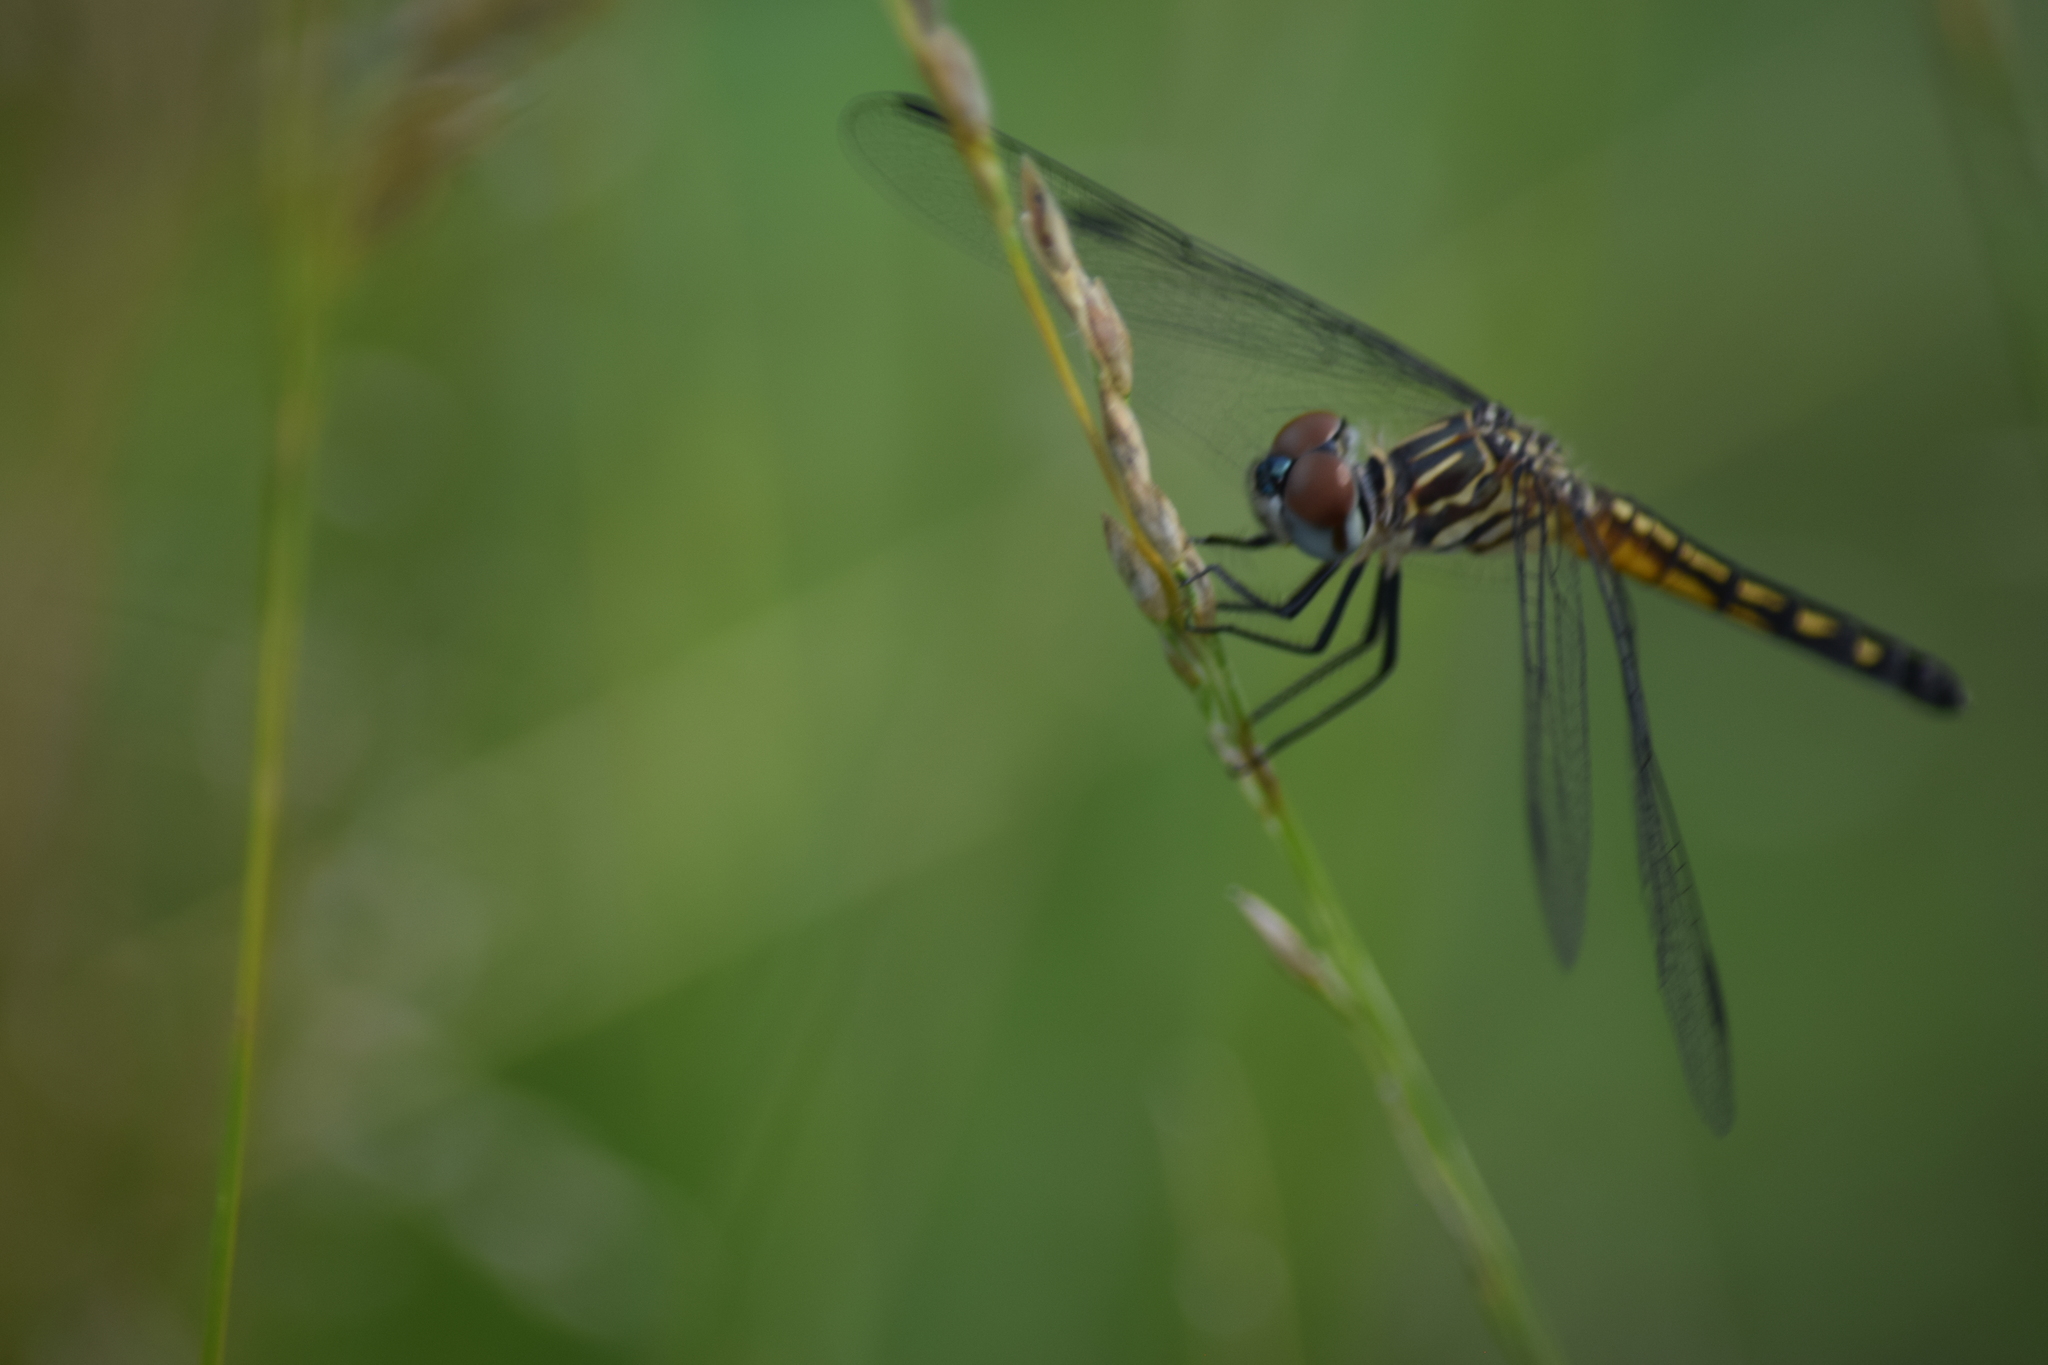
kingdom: Animalia
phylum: Arthropoda
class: Insecta
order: Odonata
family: Libellulidae
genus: Pachydiplax
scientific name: Pachydiplax longipennis
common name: Blue dasher
